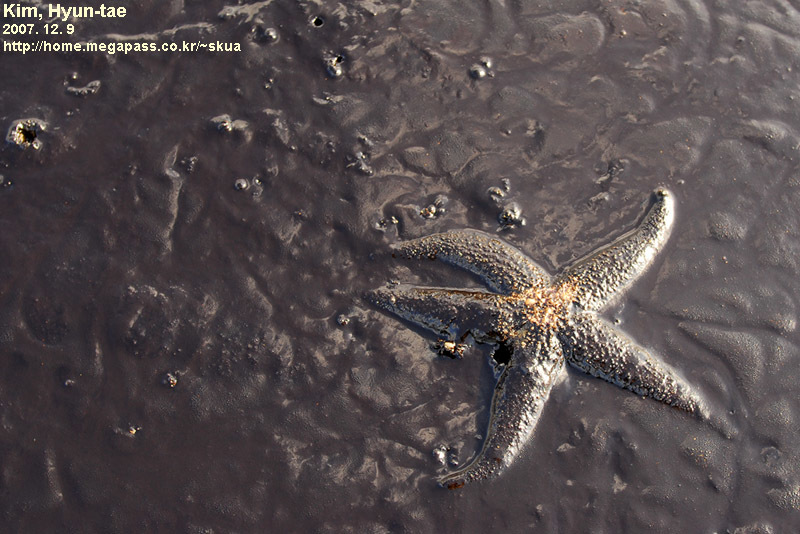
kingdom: Animalia
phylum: Echinodermata
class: Asteroidea
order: Forcipulatida
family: Asteriidae
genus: Asterias
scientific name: Asterias amurensis
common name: Flat-bottomed star
